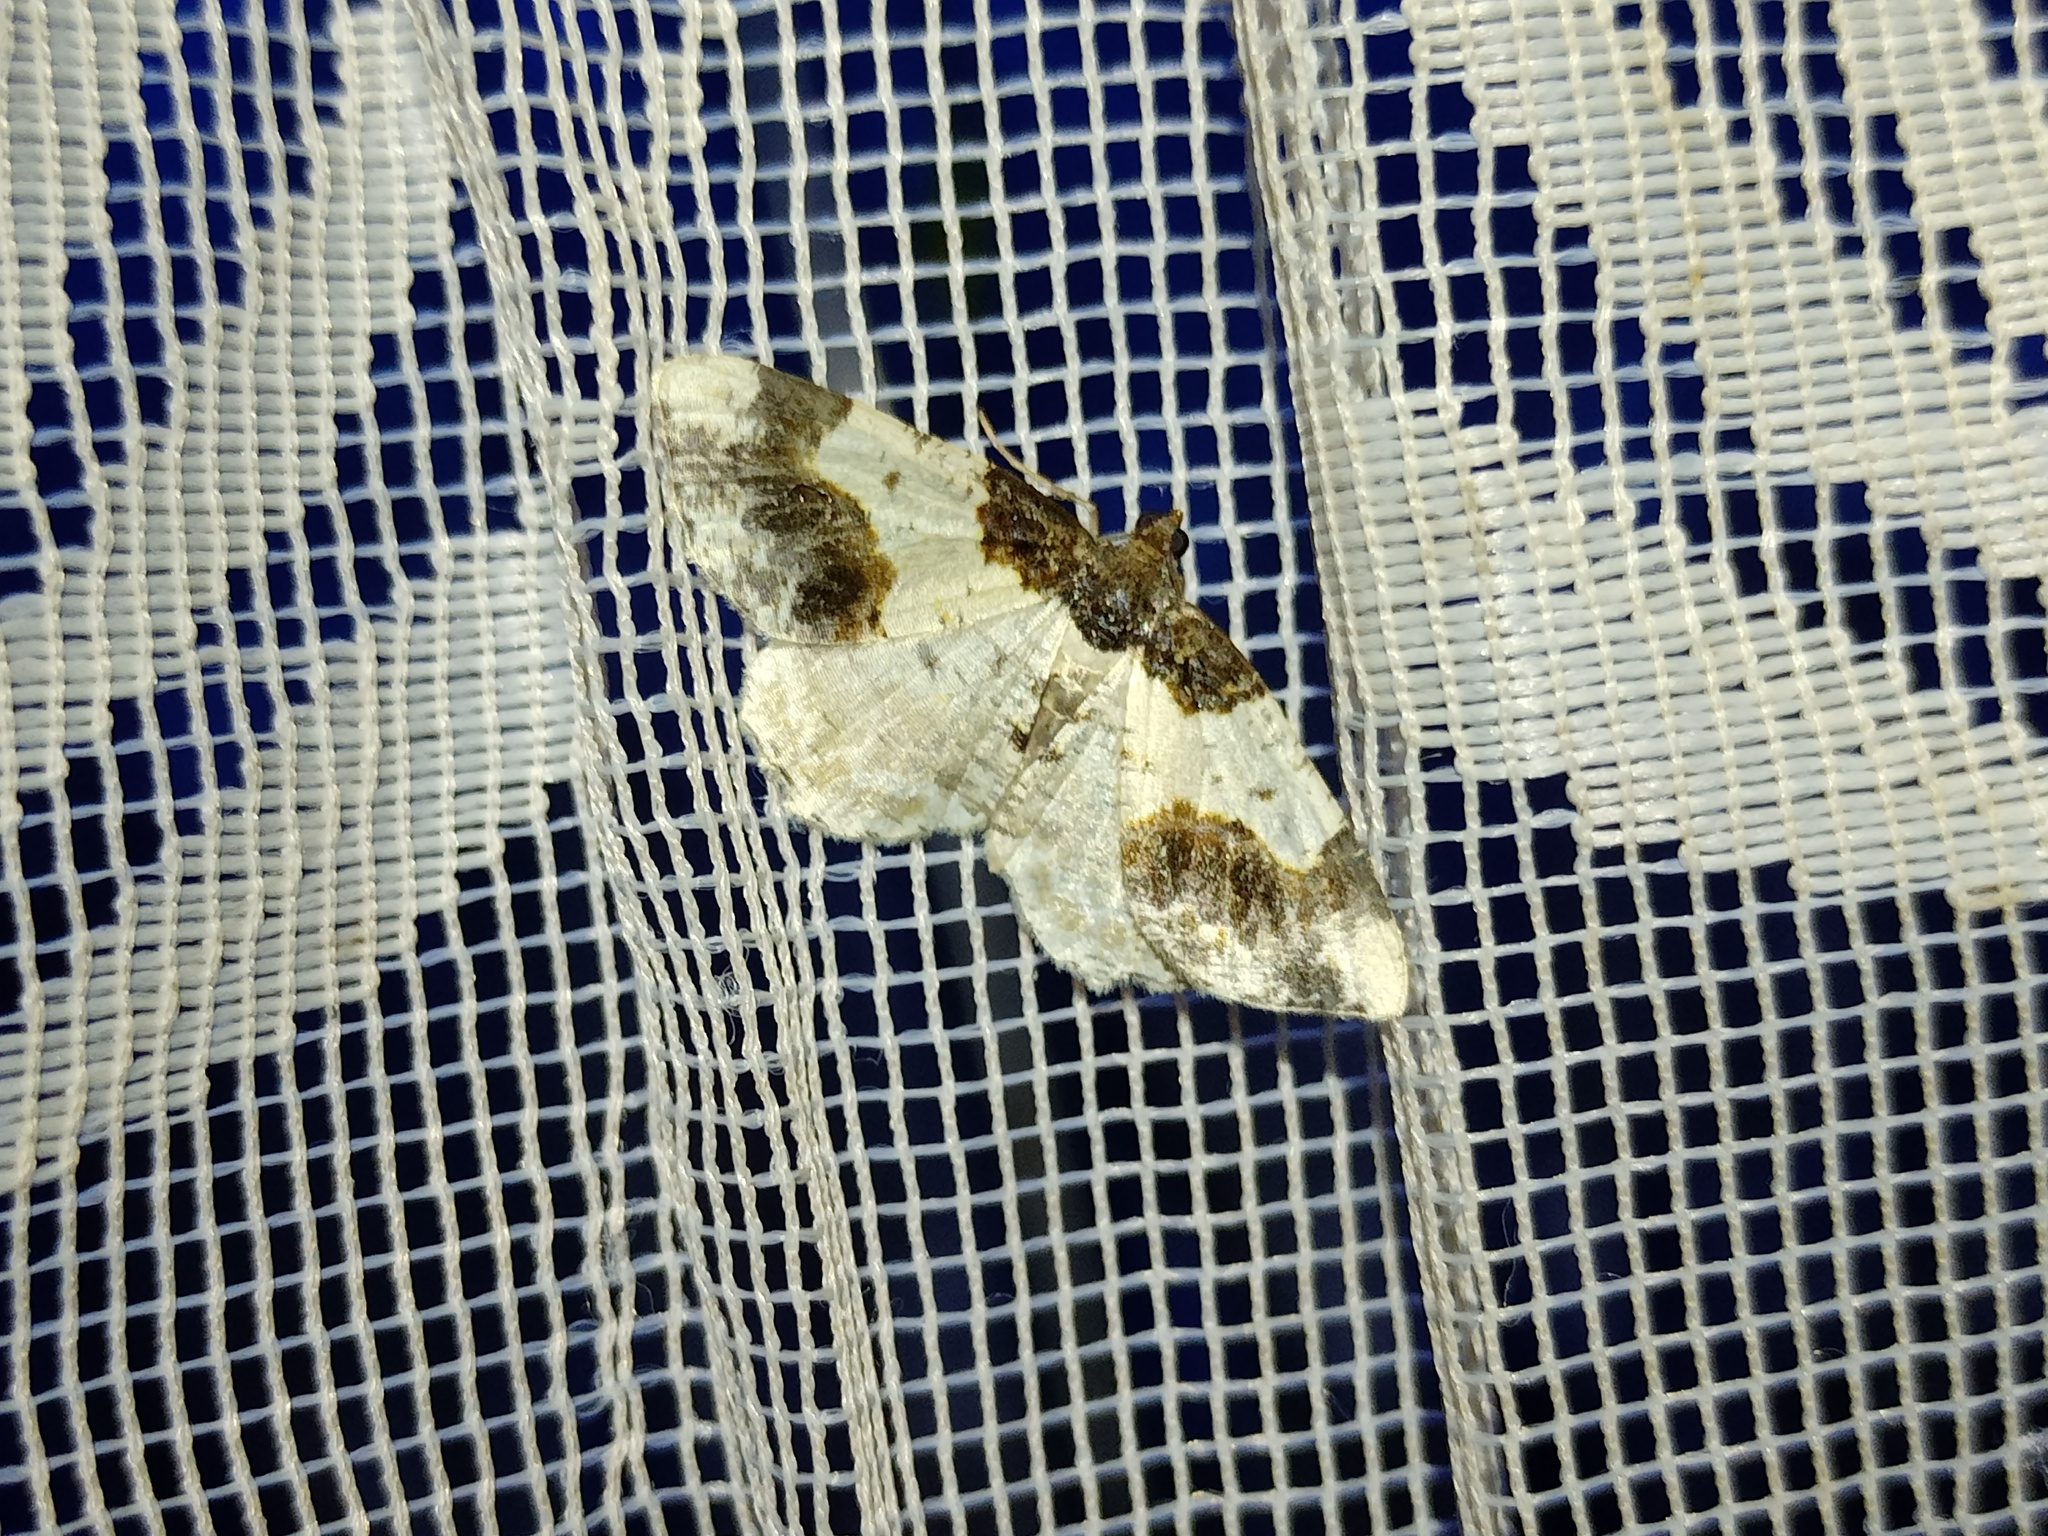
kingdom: Animalia
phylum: Arthropoda
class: Insecta
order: Lepidoptera
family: Geometridae
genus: Ligdia
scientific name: Ligdia adustata
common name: Scorched carpet
